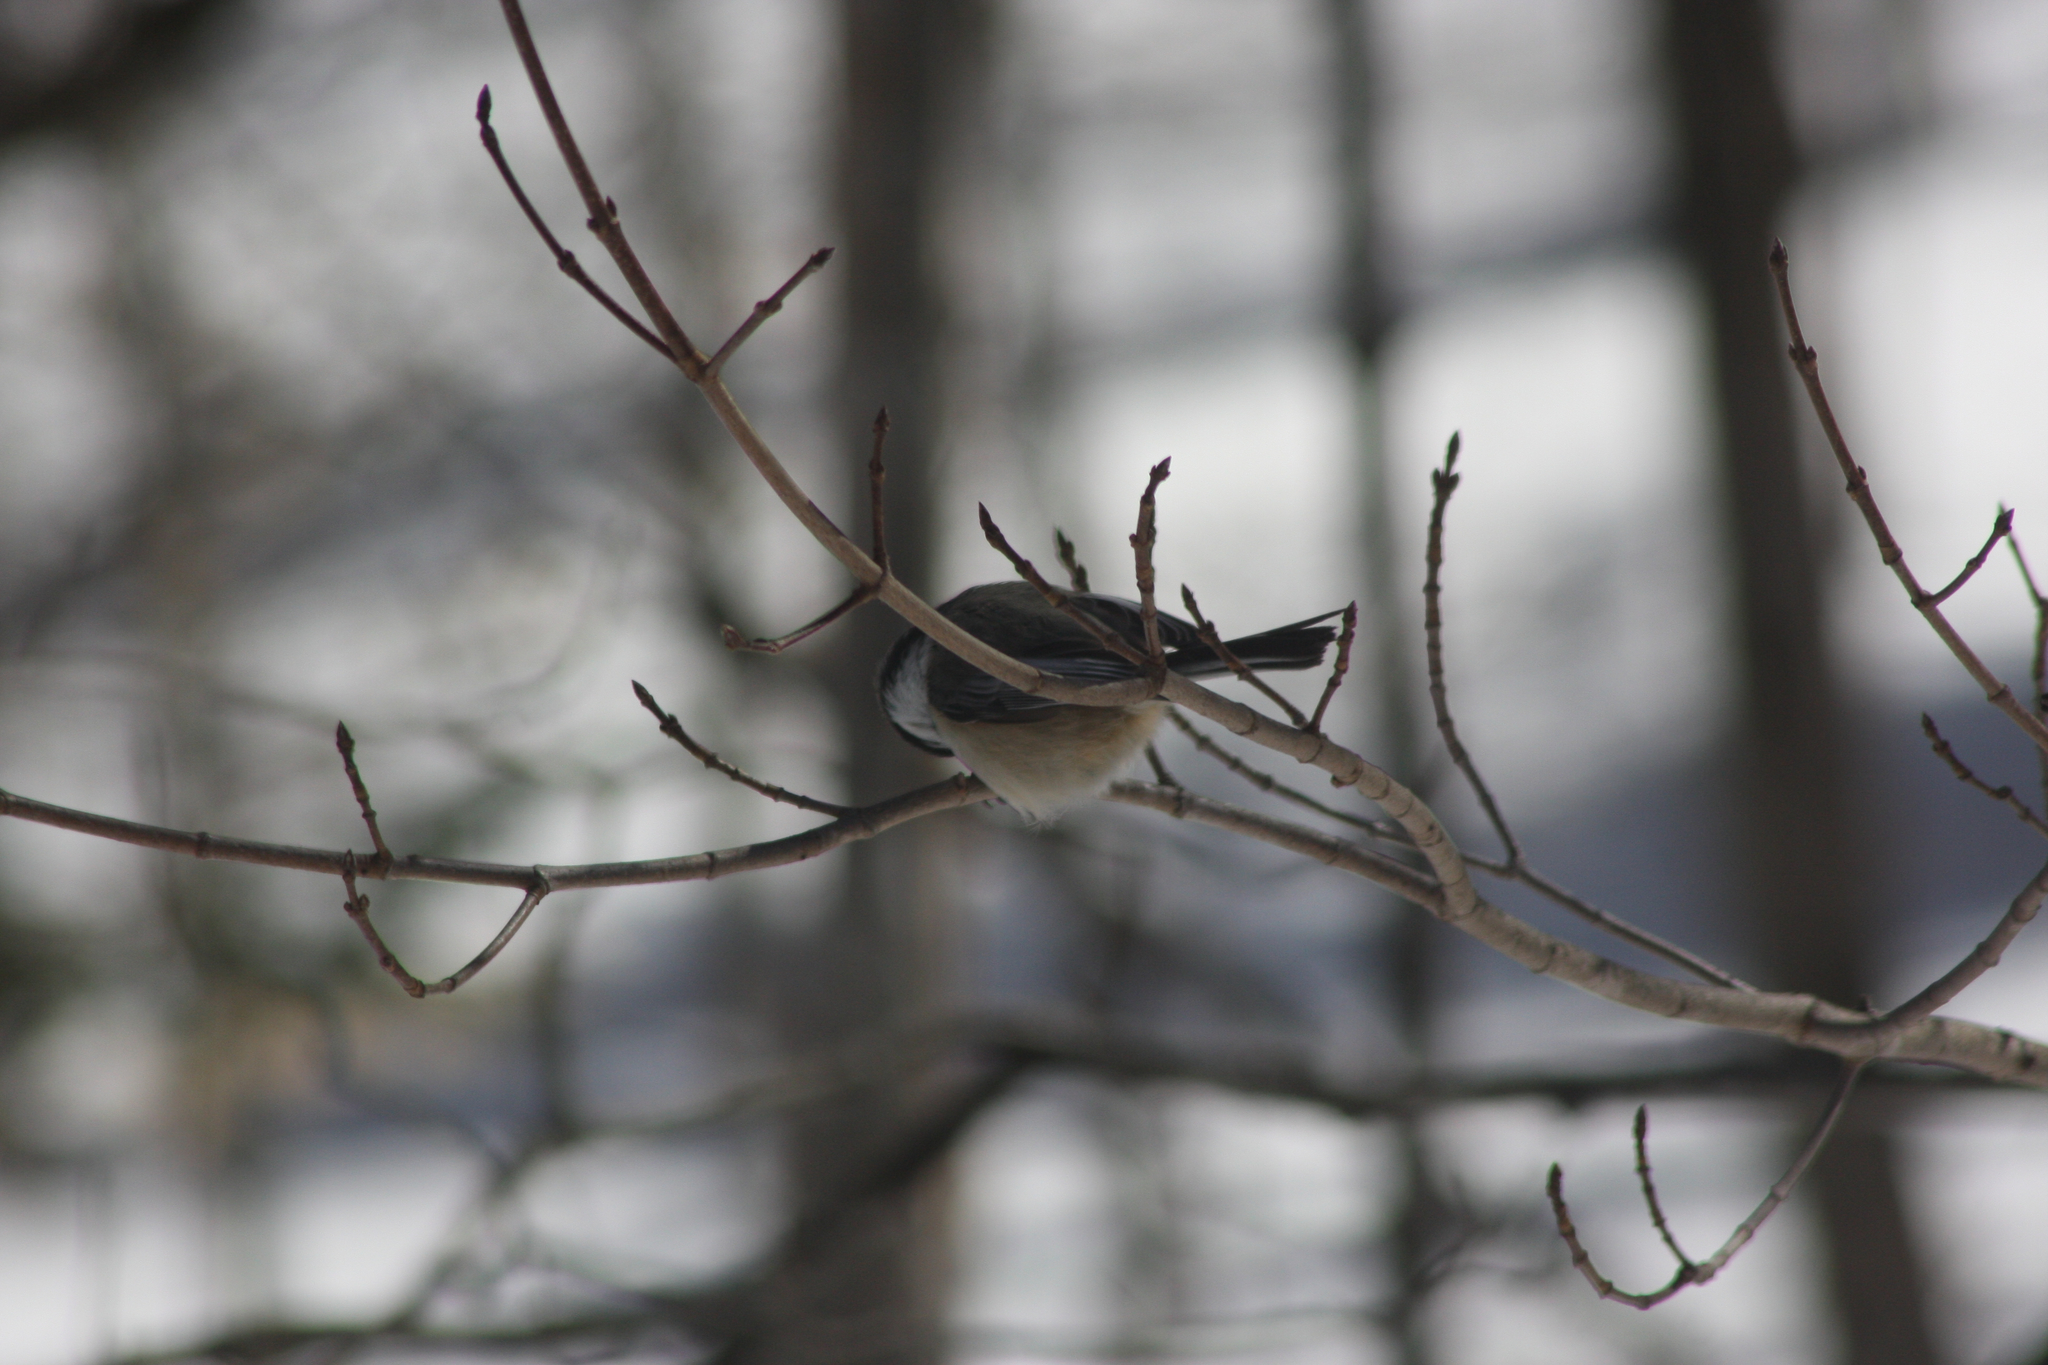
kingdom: Animalia
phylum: Chordata
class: Aves
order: Passeriformes
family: Paridae
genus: Poecile
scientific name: Poecile atricapillus
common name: Black-capped chickadee
